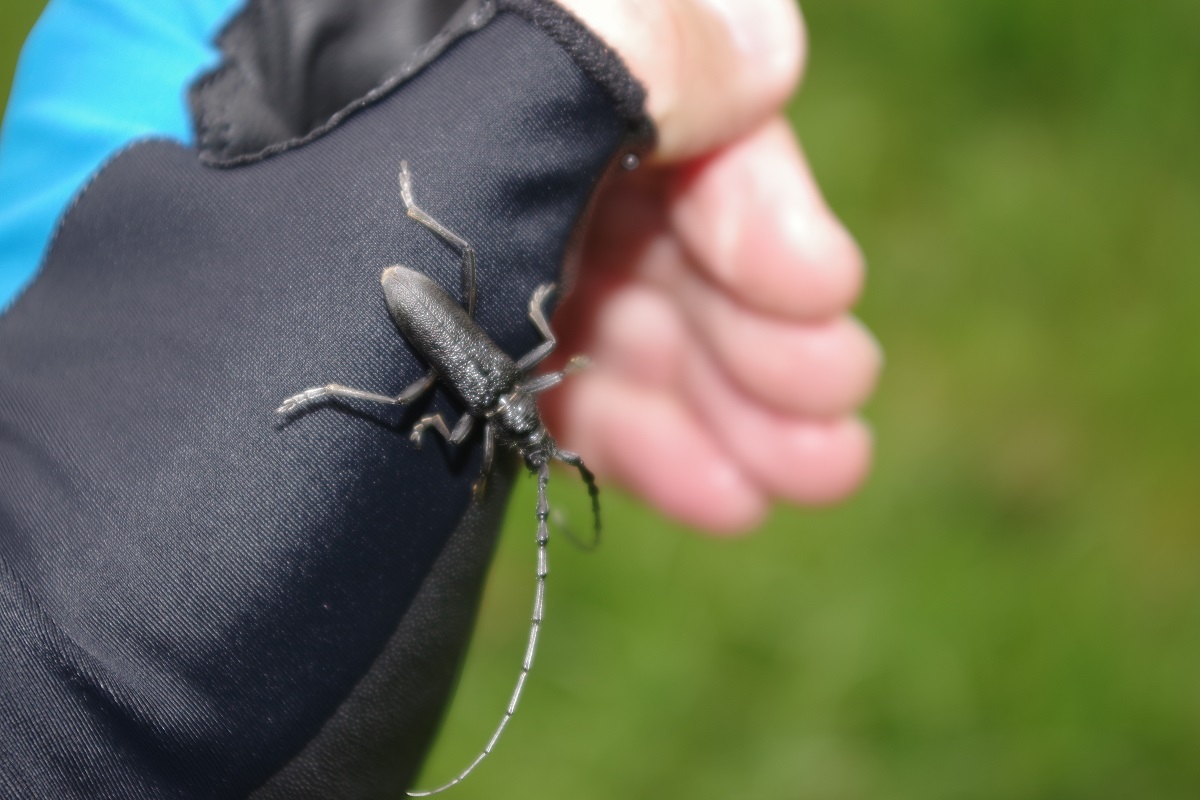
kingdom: Animalia
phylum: Arthropoda
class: Insecta
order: Coleoptera
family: Cerambycidae
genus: Cerambyx
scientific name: Cerambyx scopolii
